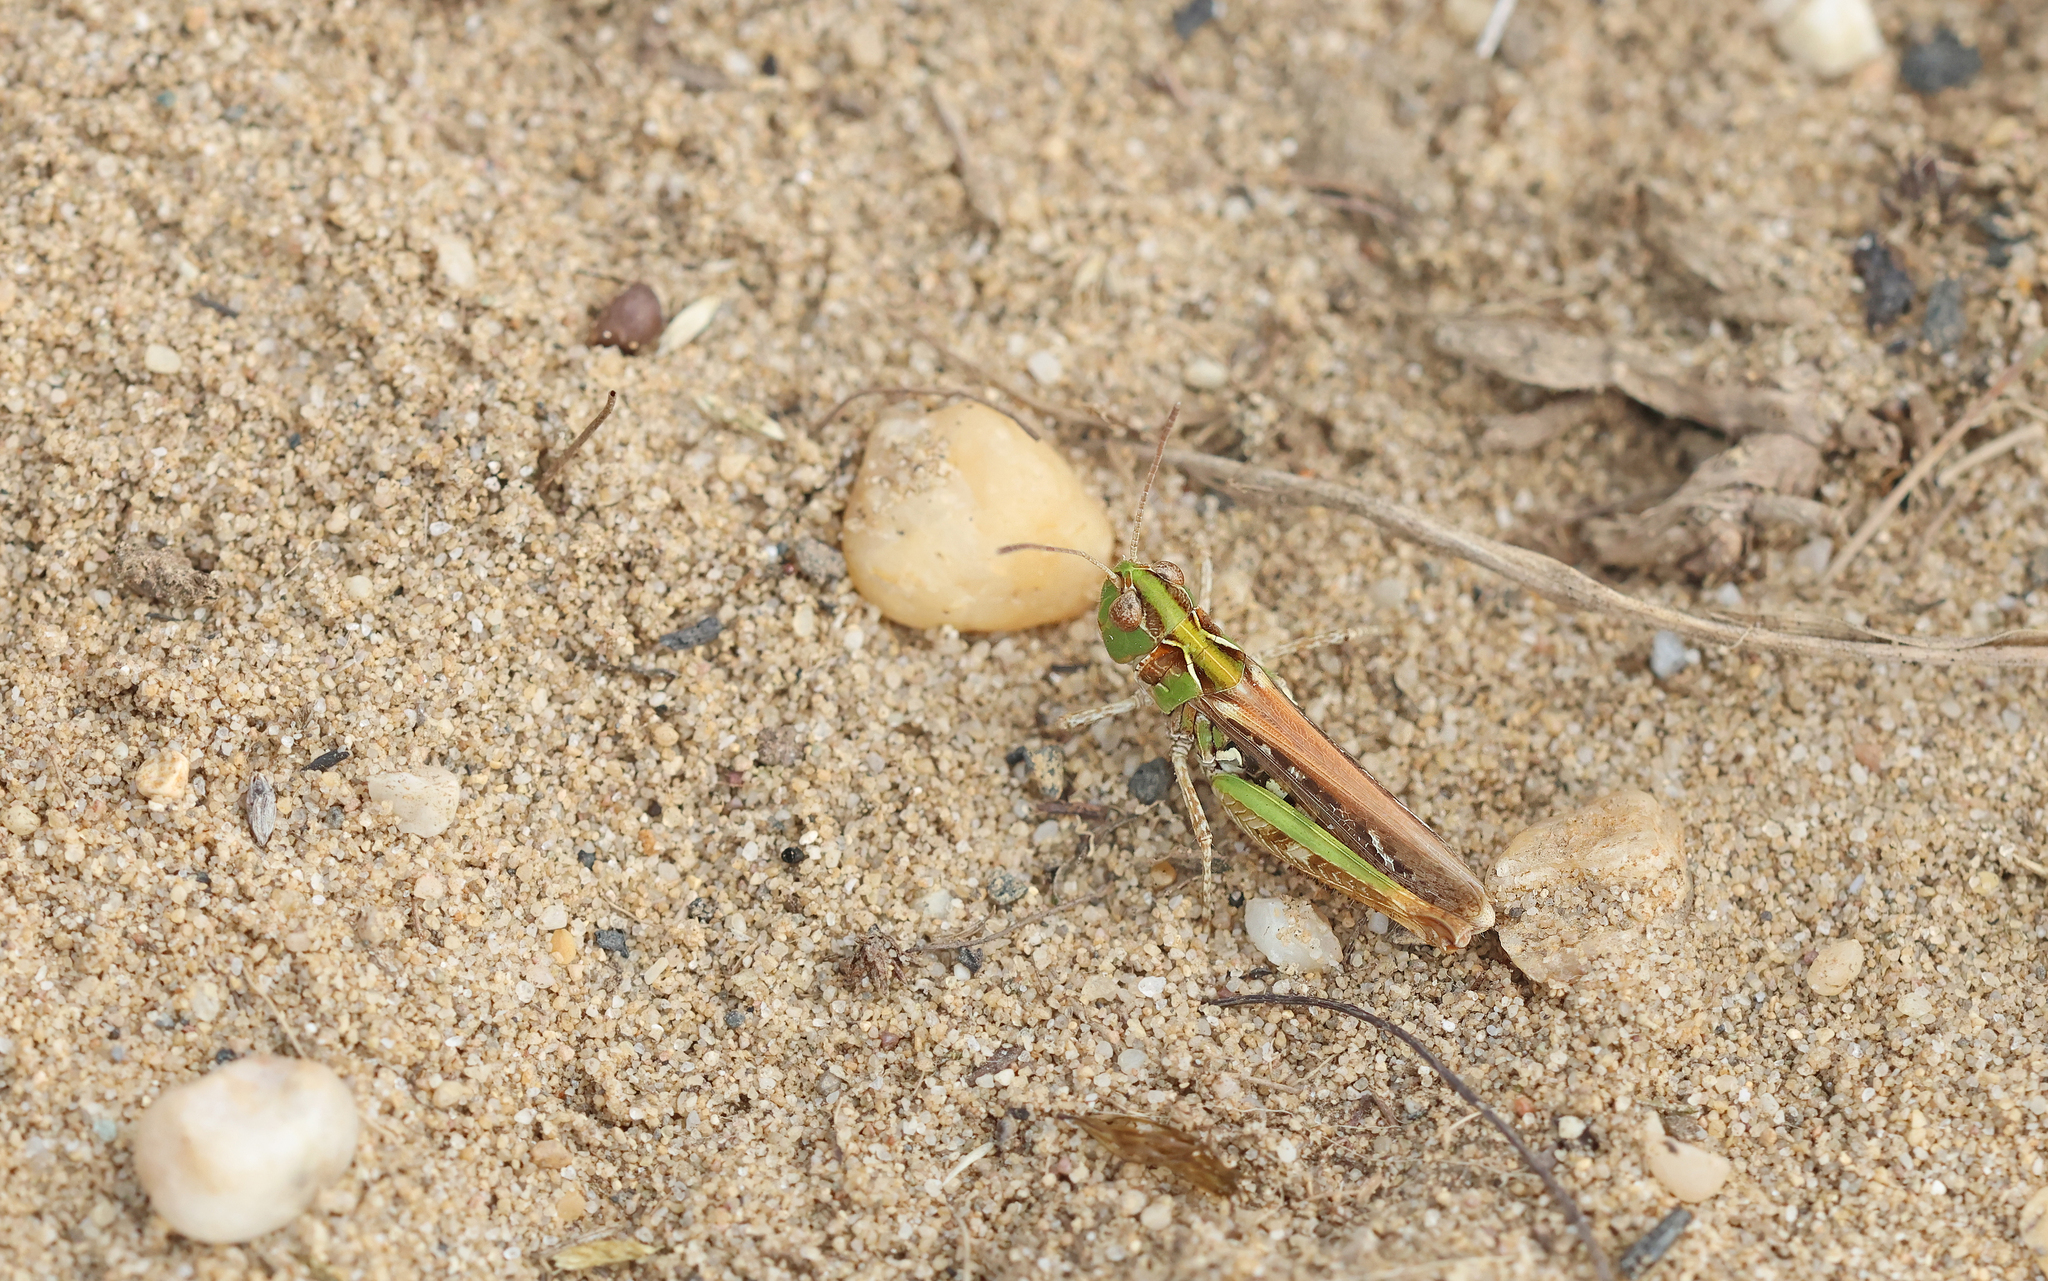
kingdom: Animalia
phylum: Arthropoda
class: Insecta
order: Orthoptera
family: Acrididae
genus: Myrmeleotettix
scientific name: Myrmeleotettix maculatus
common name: Mottled grasshopper
